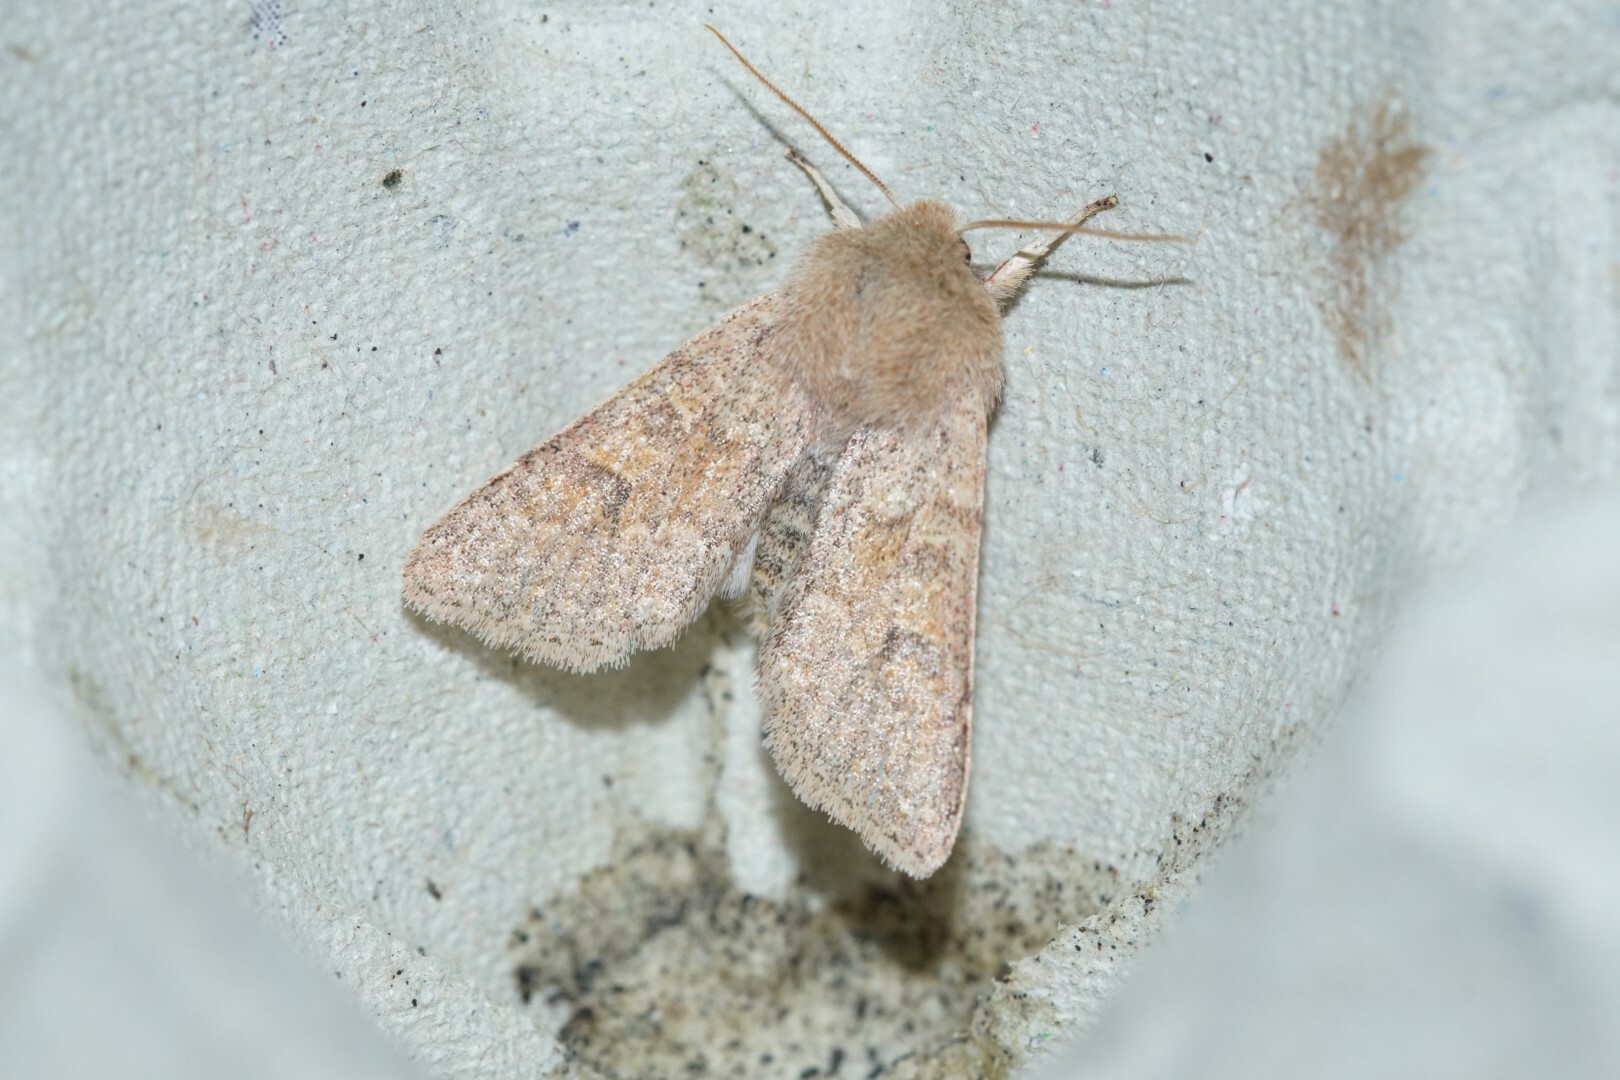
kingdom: Animalia
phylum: Arthropoda
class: Insecta
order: Lepidoptera
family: Noctuidae
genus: Orthosia
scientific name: Orthosia miniosa
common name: Blossom underwing
